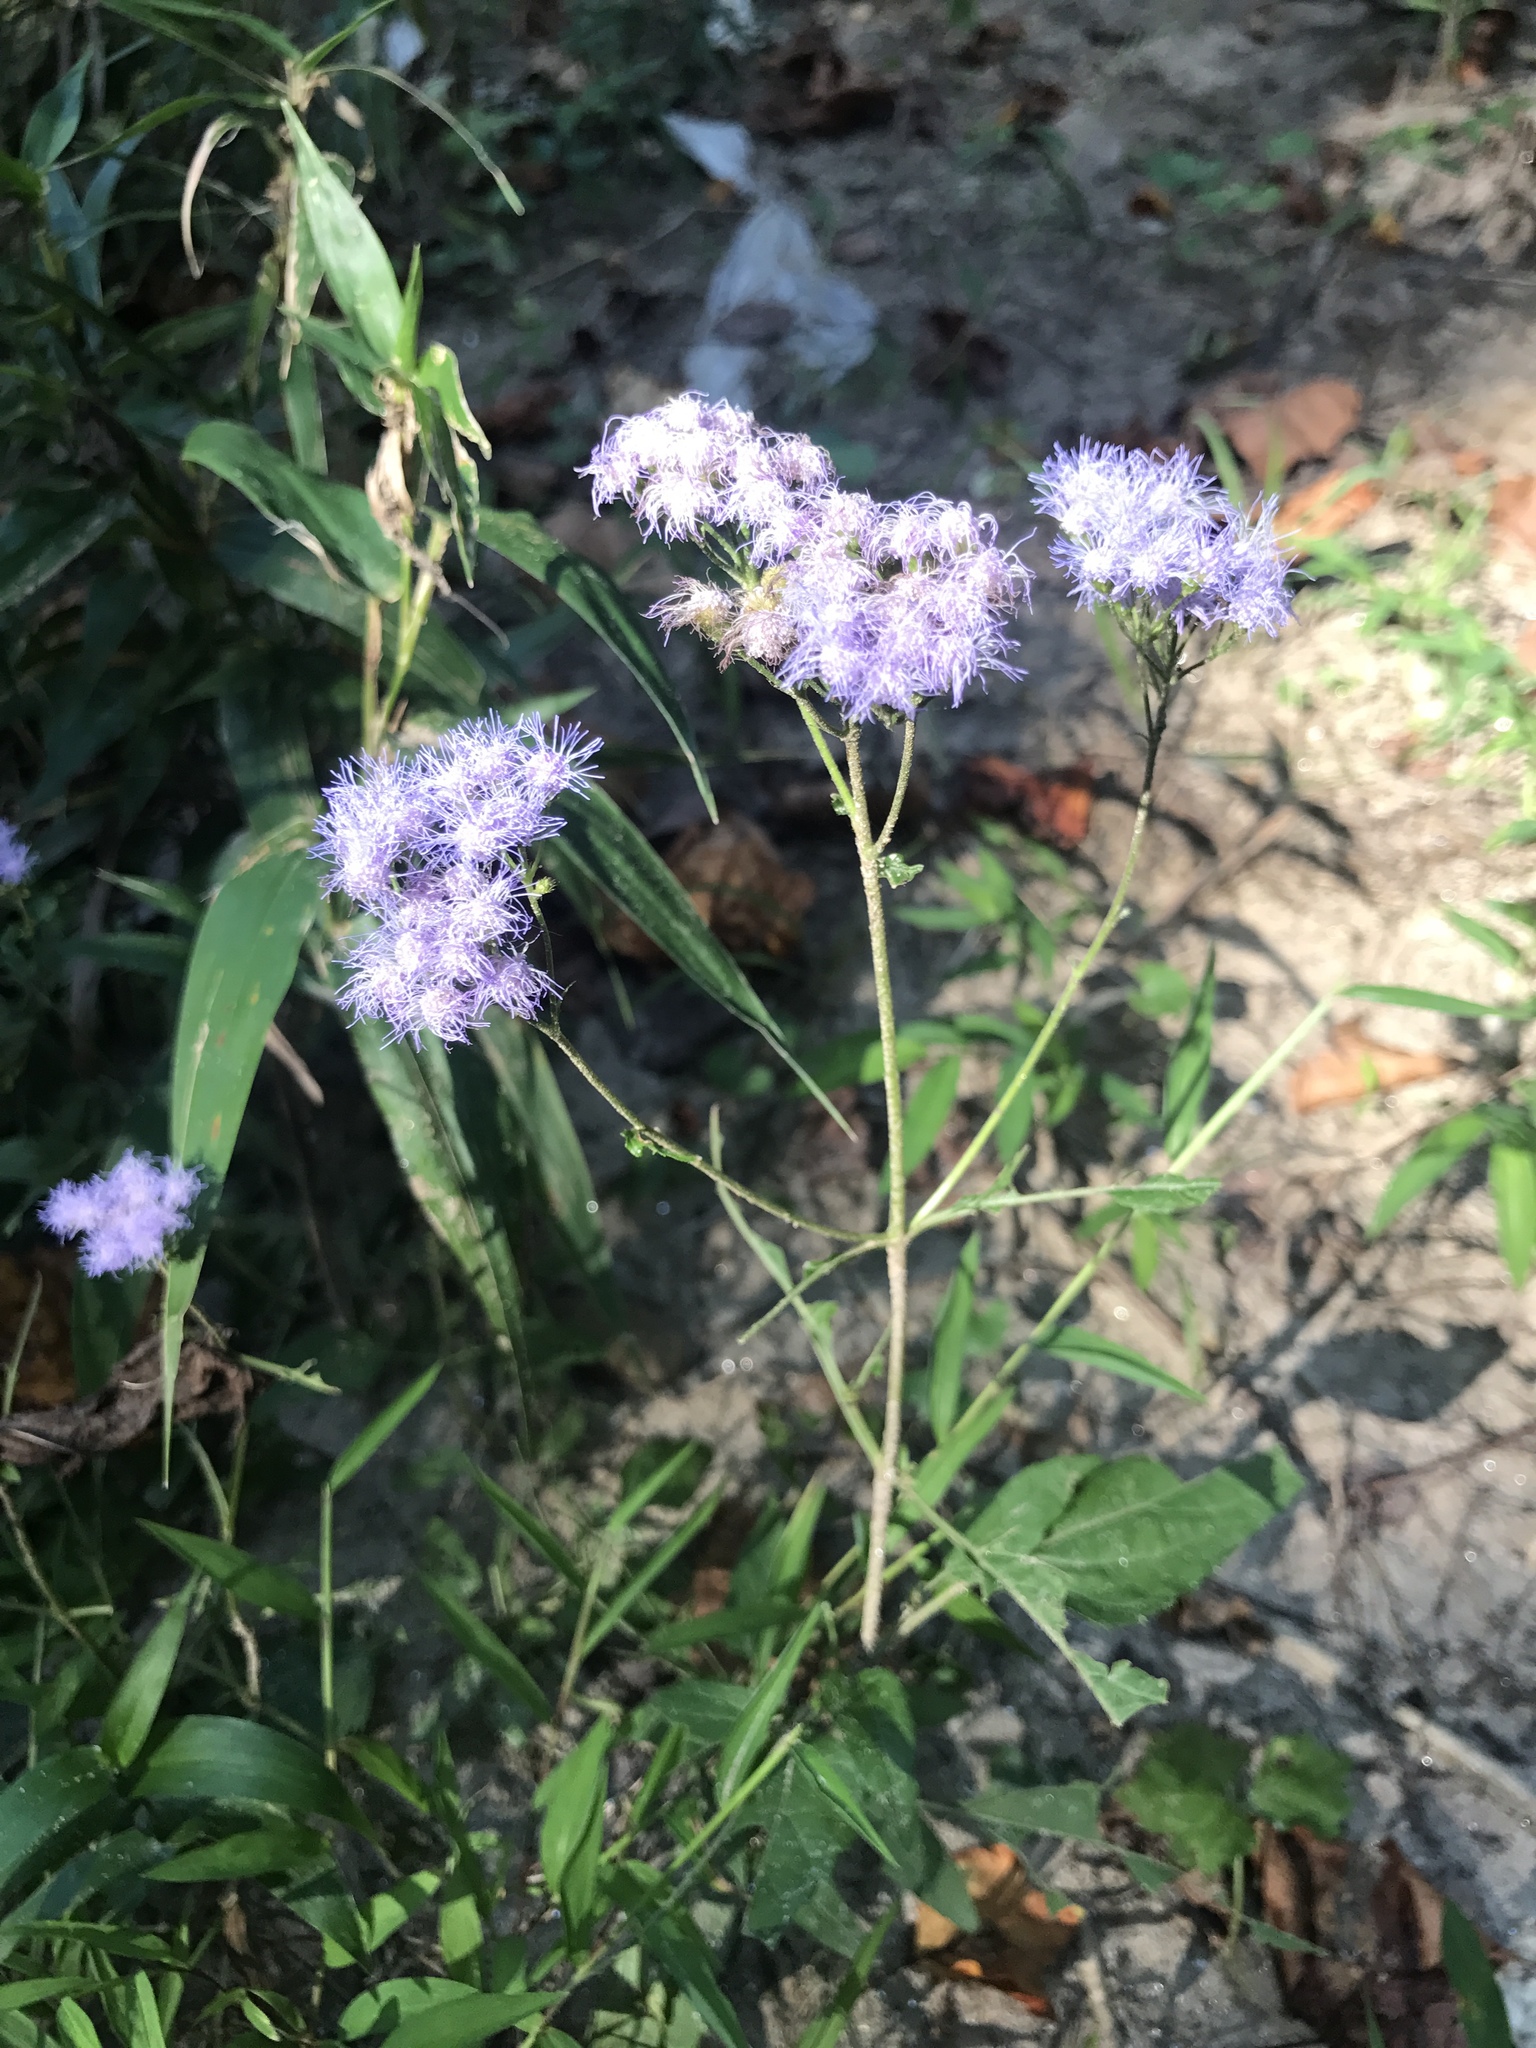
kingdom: Plantae
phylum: Tracheophyta
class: Magnoliopsida
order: Asterales
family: Asteraceae
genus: Conoclinium
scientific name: Conoclinium coelestinum
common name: Blue mistflower
